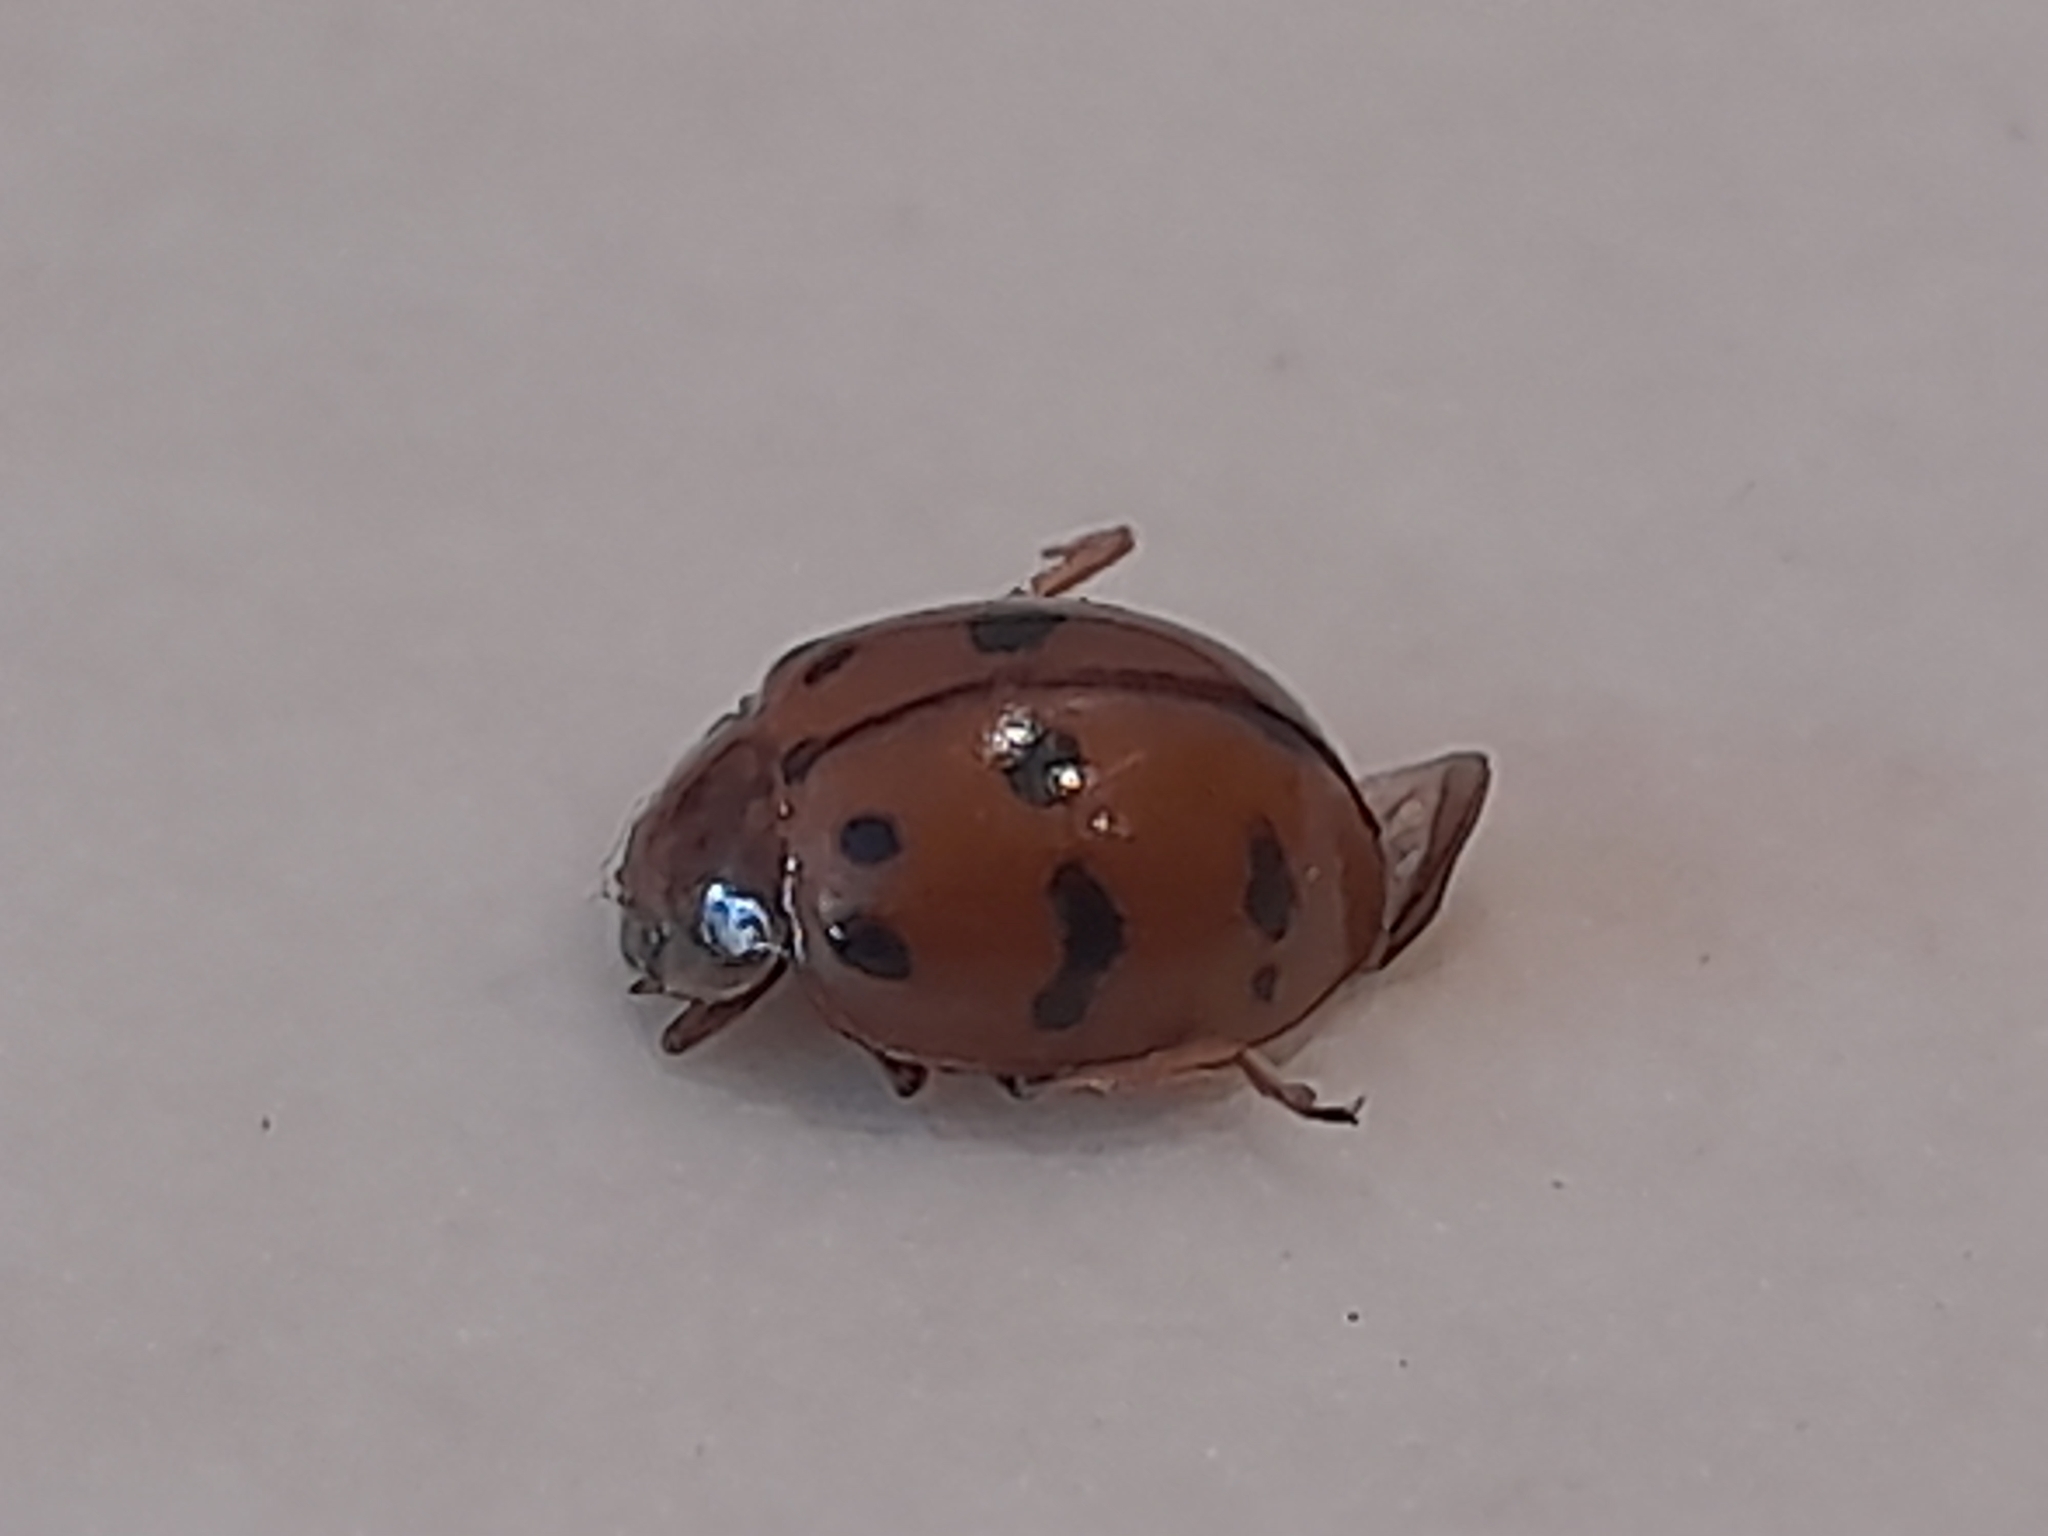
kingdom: Animalia
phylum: Arthropoda
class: Insecta
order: Coleoptera
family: Coccinellidae
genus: Harmonia
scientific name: Harmonia octomaculata
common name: Lady beetle
